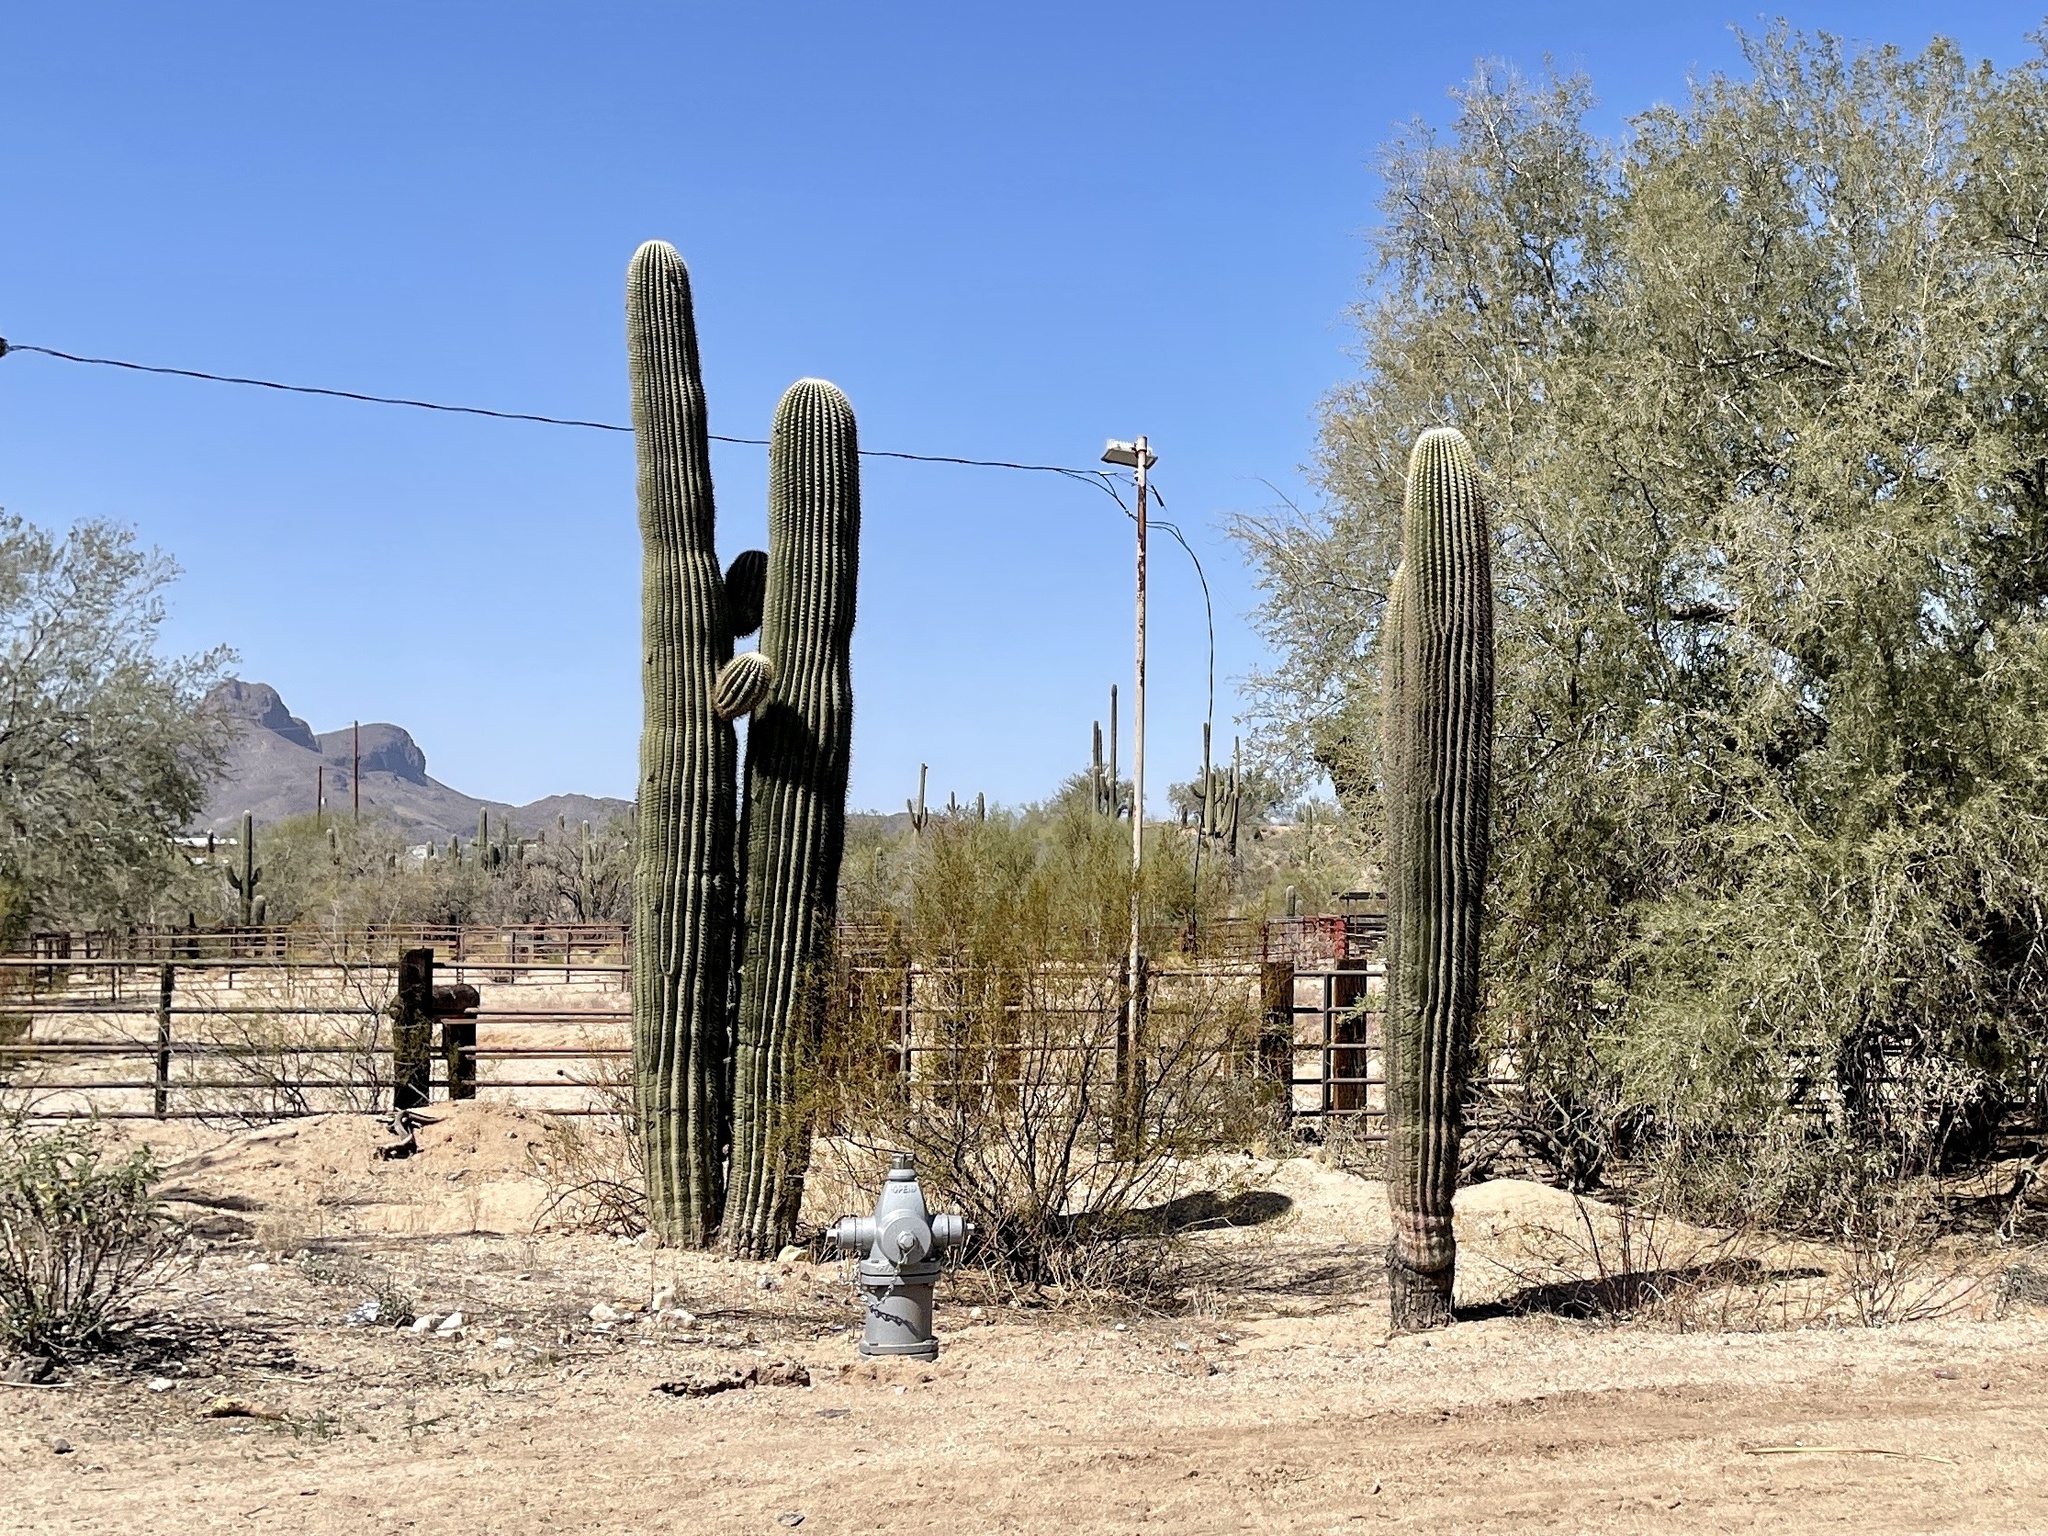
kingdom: Plantae
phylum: Tracheophyta
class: Magnoliopsida
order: Caryophyllales
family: Cactaceae
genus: Carnegiea
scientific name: Carnegiea gigantea
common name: Saguaro
